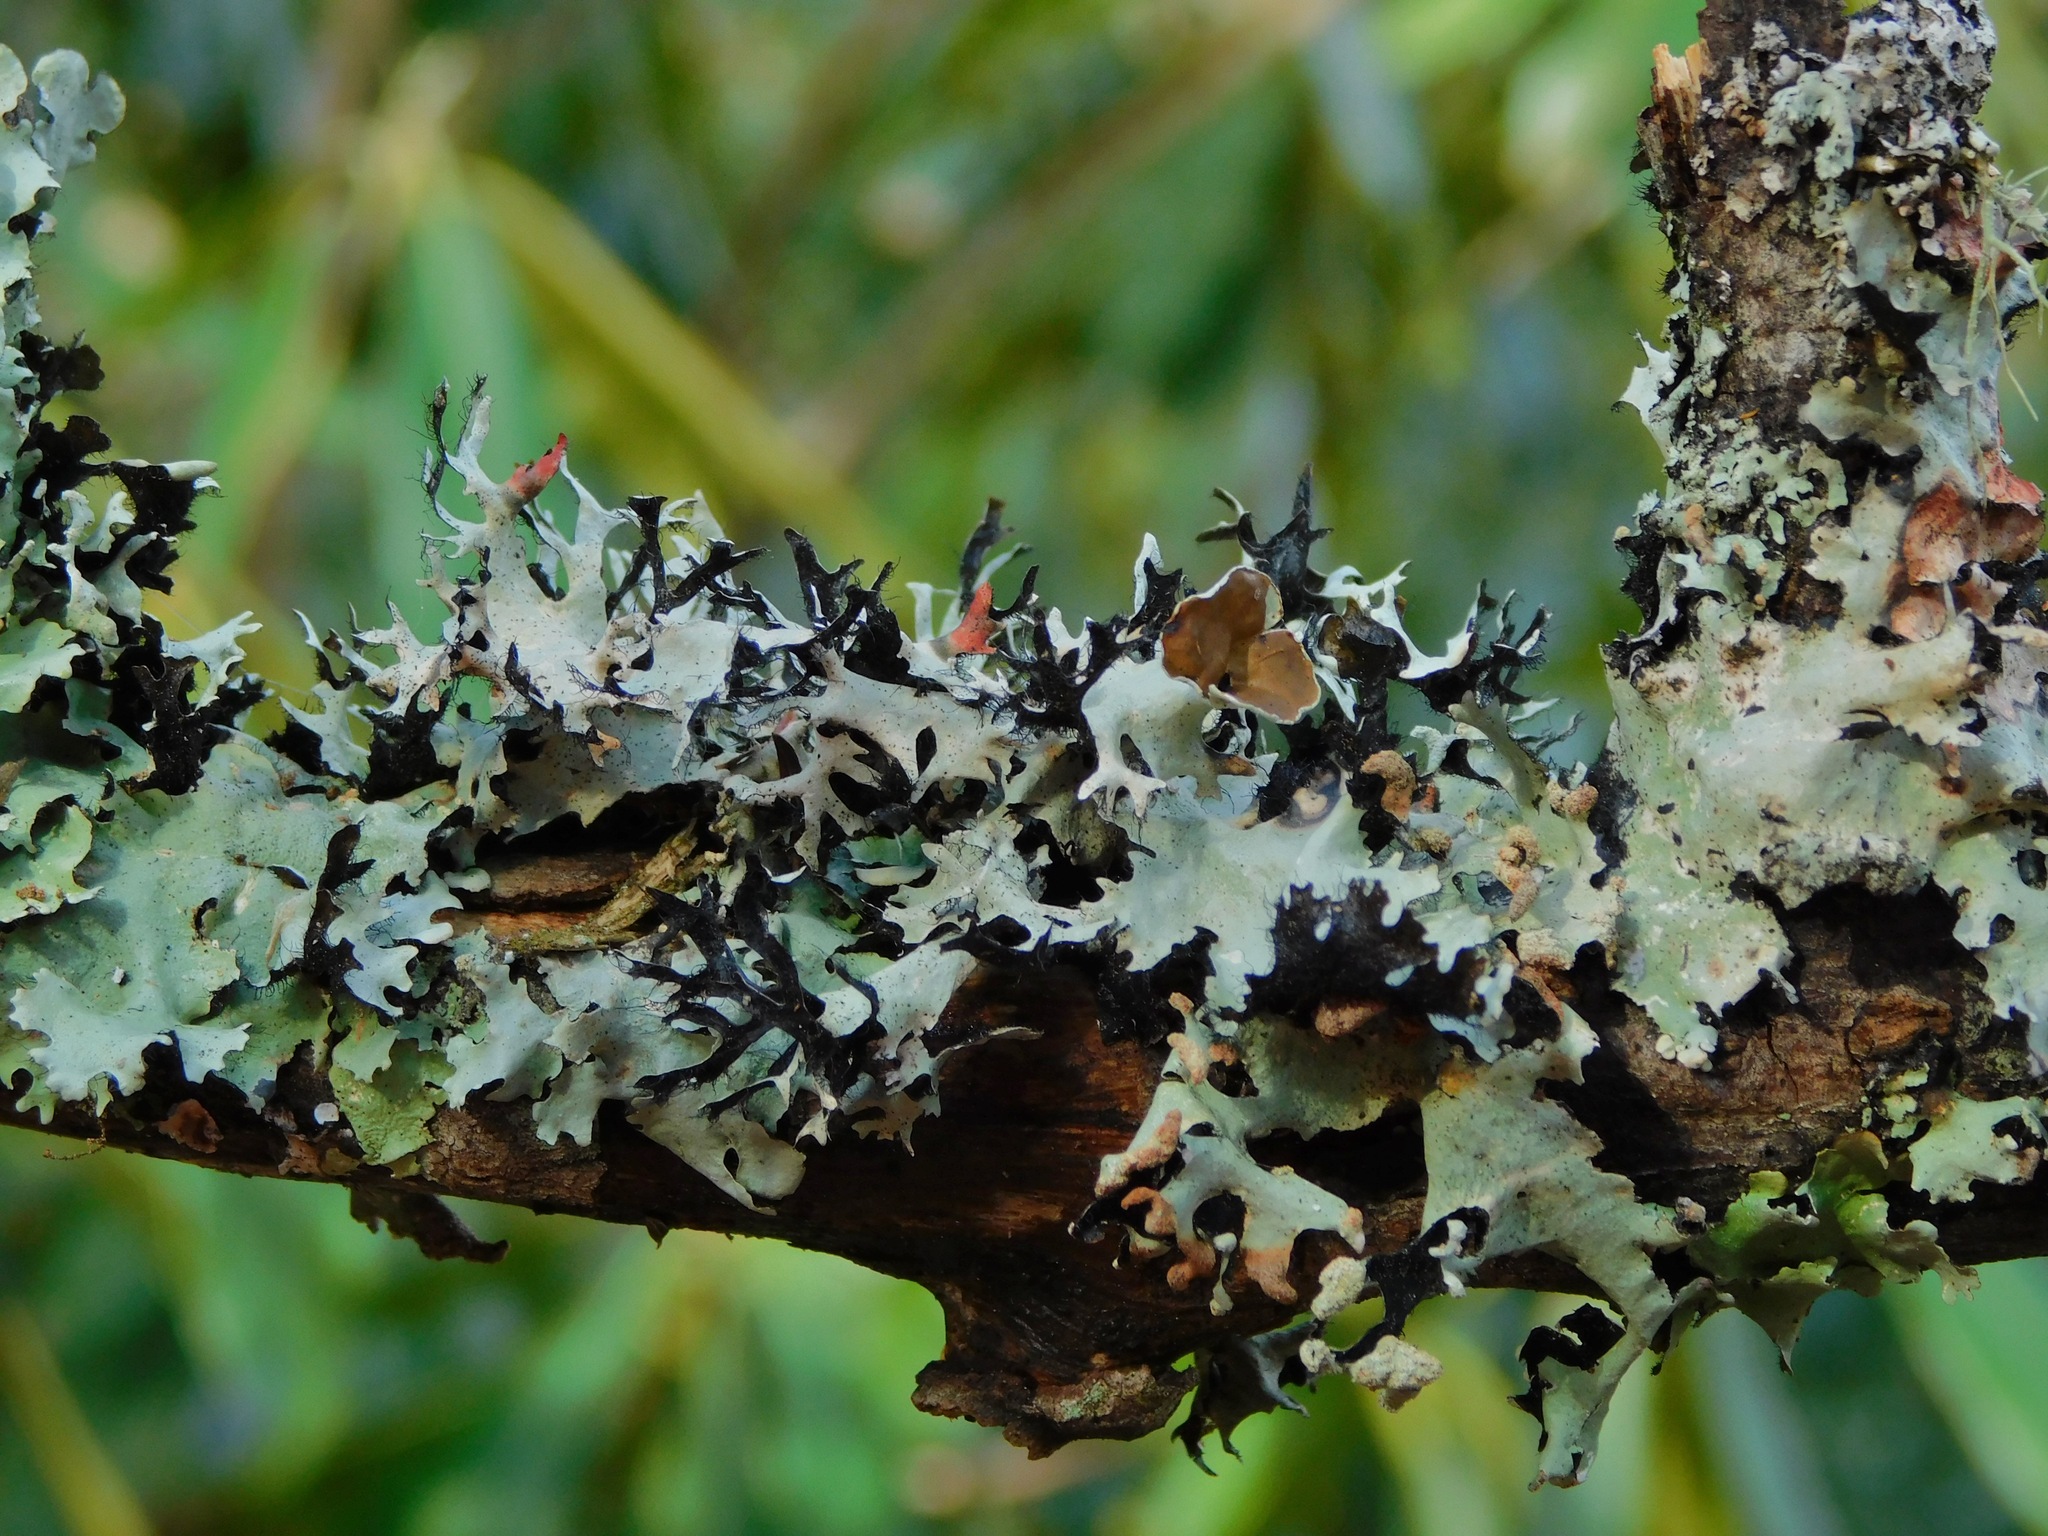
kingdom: Fungi
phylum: Ascomycota
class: Lecanoromycetes
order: Lecanorales
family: Parmeliaceae
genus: Parmotrema
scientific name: Parmotrema perforatum
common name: Perforated ruffle lichen
